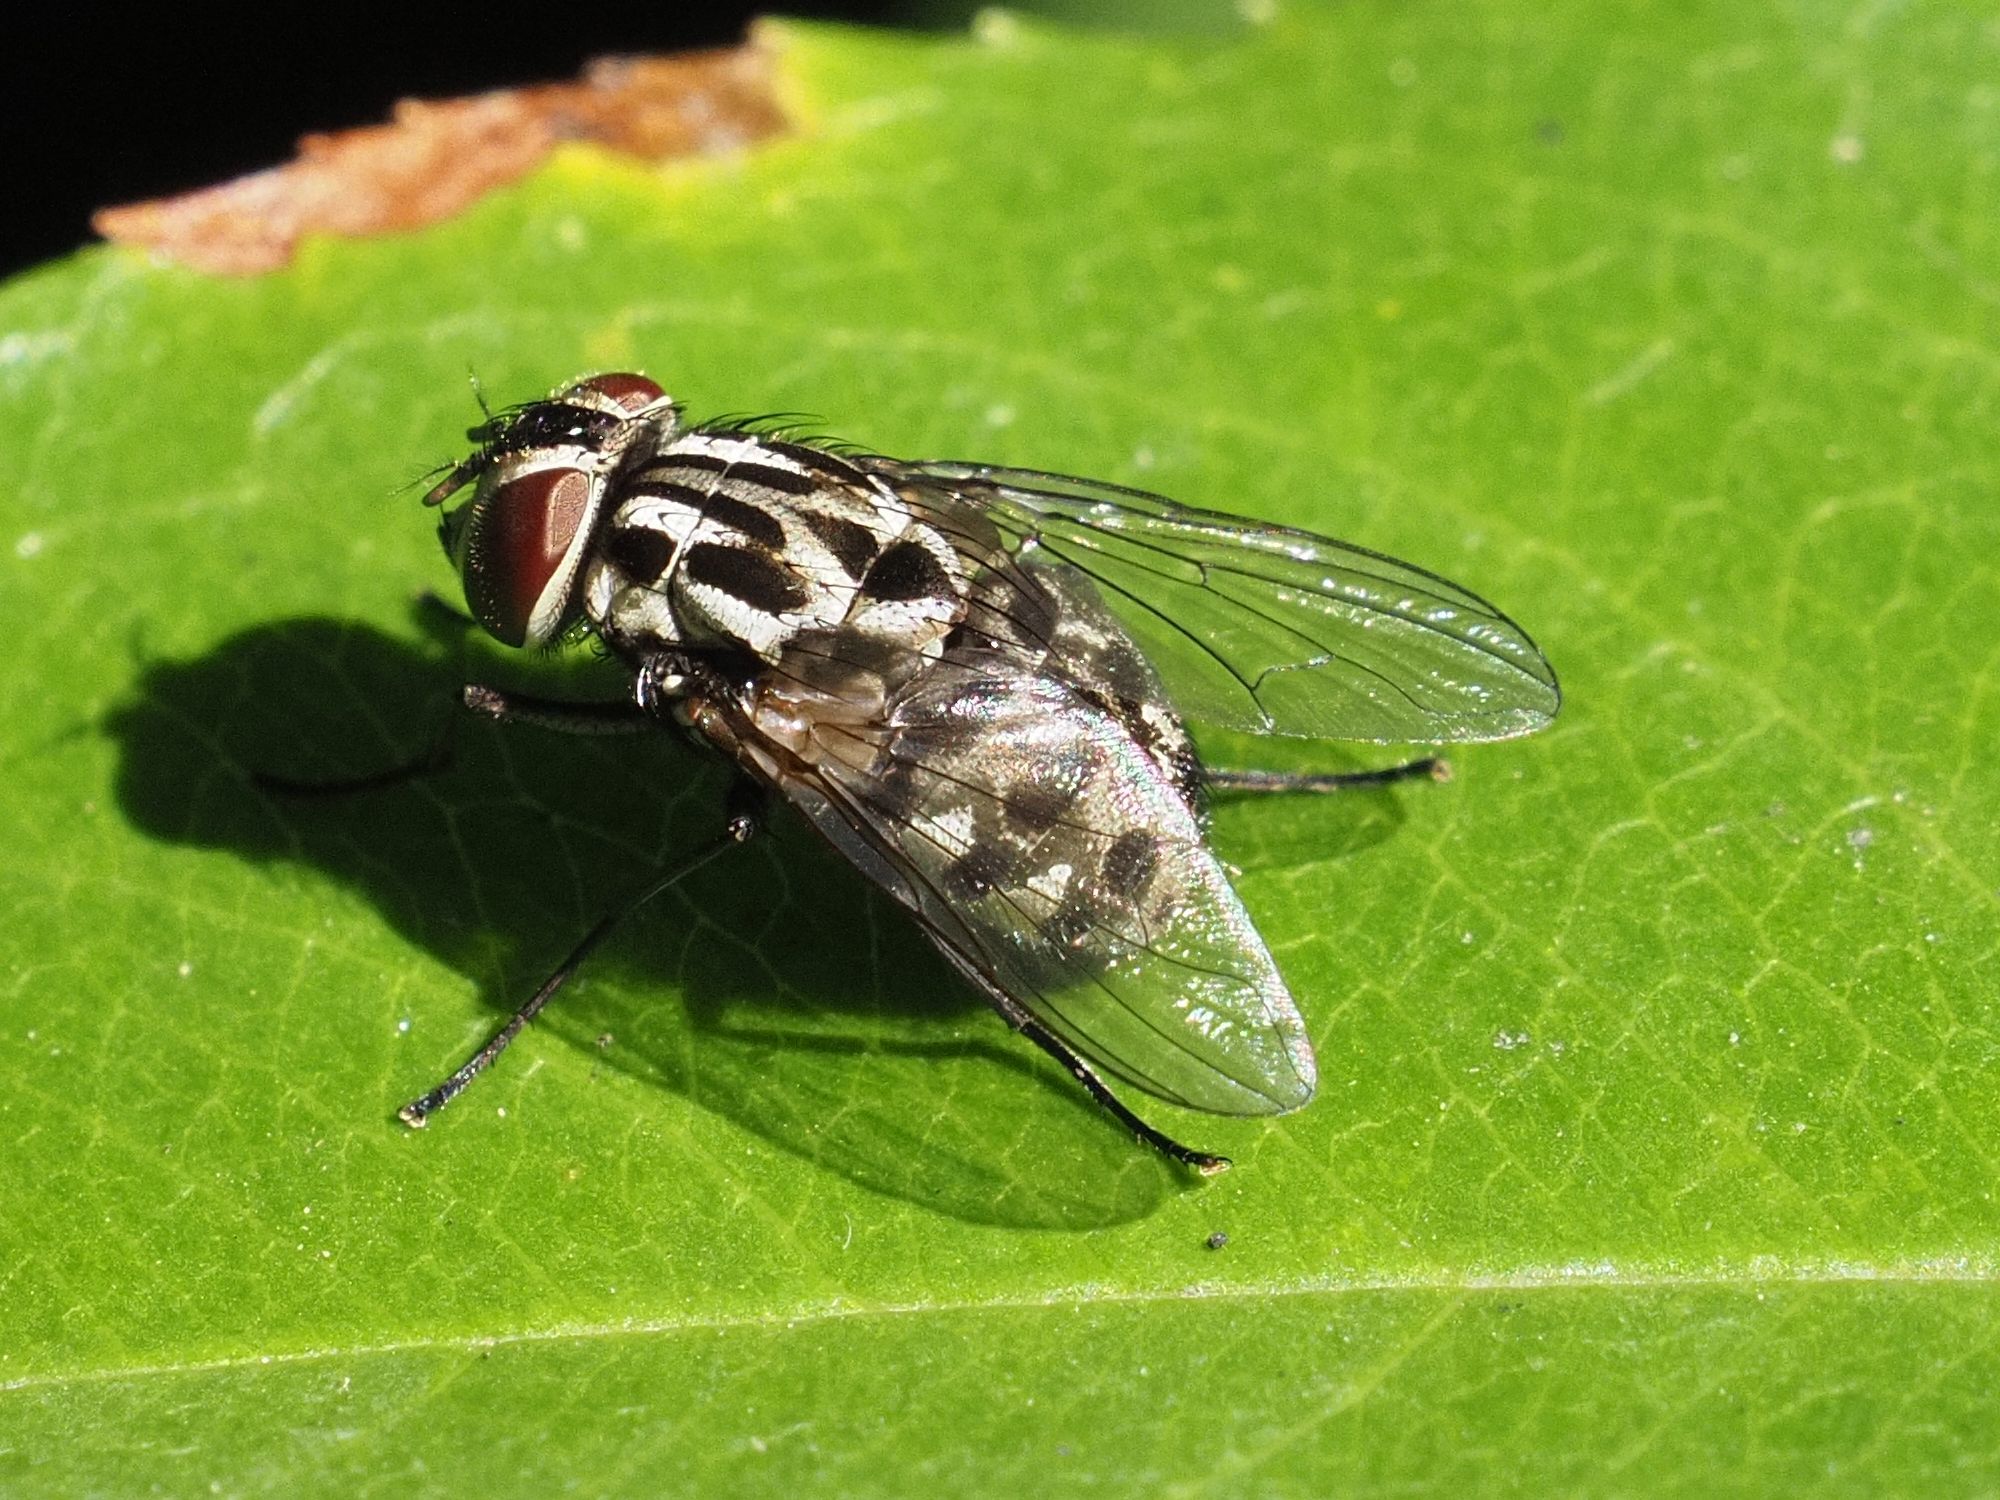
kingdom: Animalia
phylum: Arthropoda
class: Insecta
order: Diptera
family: Muscidae
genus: Graphomya
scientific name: Graphomya maculata
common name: Muscid fly
